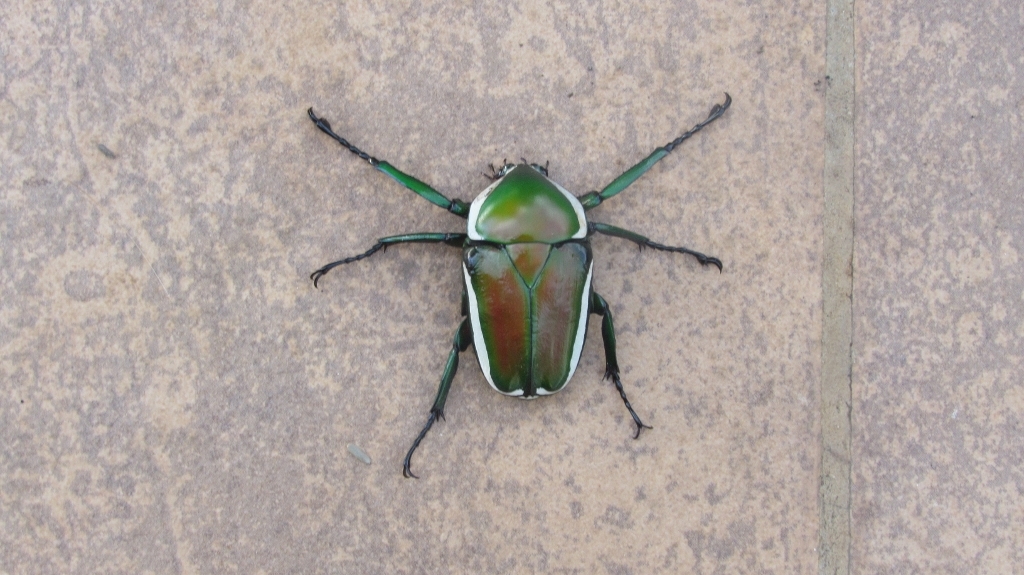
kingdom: Animalia
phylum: Arthropoda
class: Insecta
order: Coleoptera
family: Scarabaeidae
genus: Dicronorhina
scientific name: Dicronorhina derbyana
